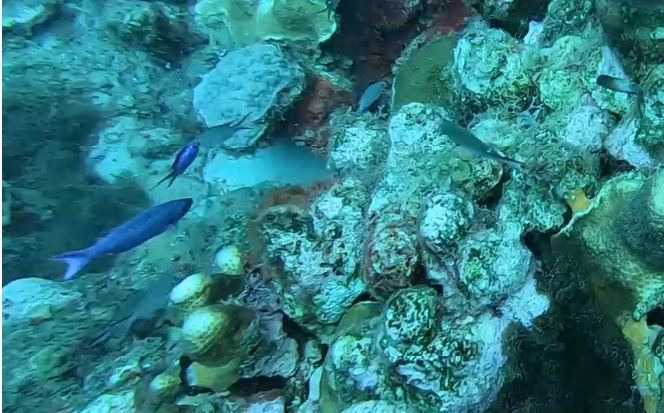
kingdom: Animalia
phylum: Chordata
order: Perciformes
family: Labridae
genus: Bodianus
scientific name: Bodianus
